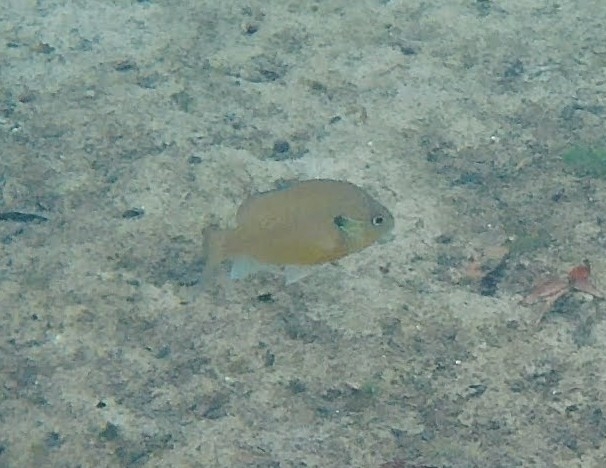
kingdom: Animalia
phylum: Chordata
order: Perciformes
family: Centrarchidae
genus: Lepomis
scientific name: Lepomis auritus
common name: Redbreast sunfish
